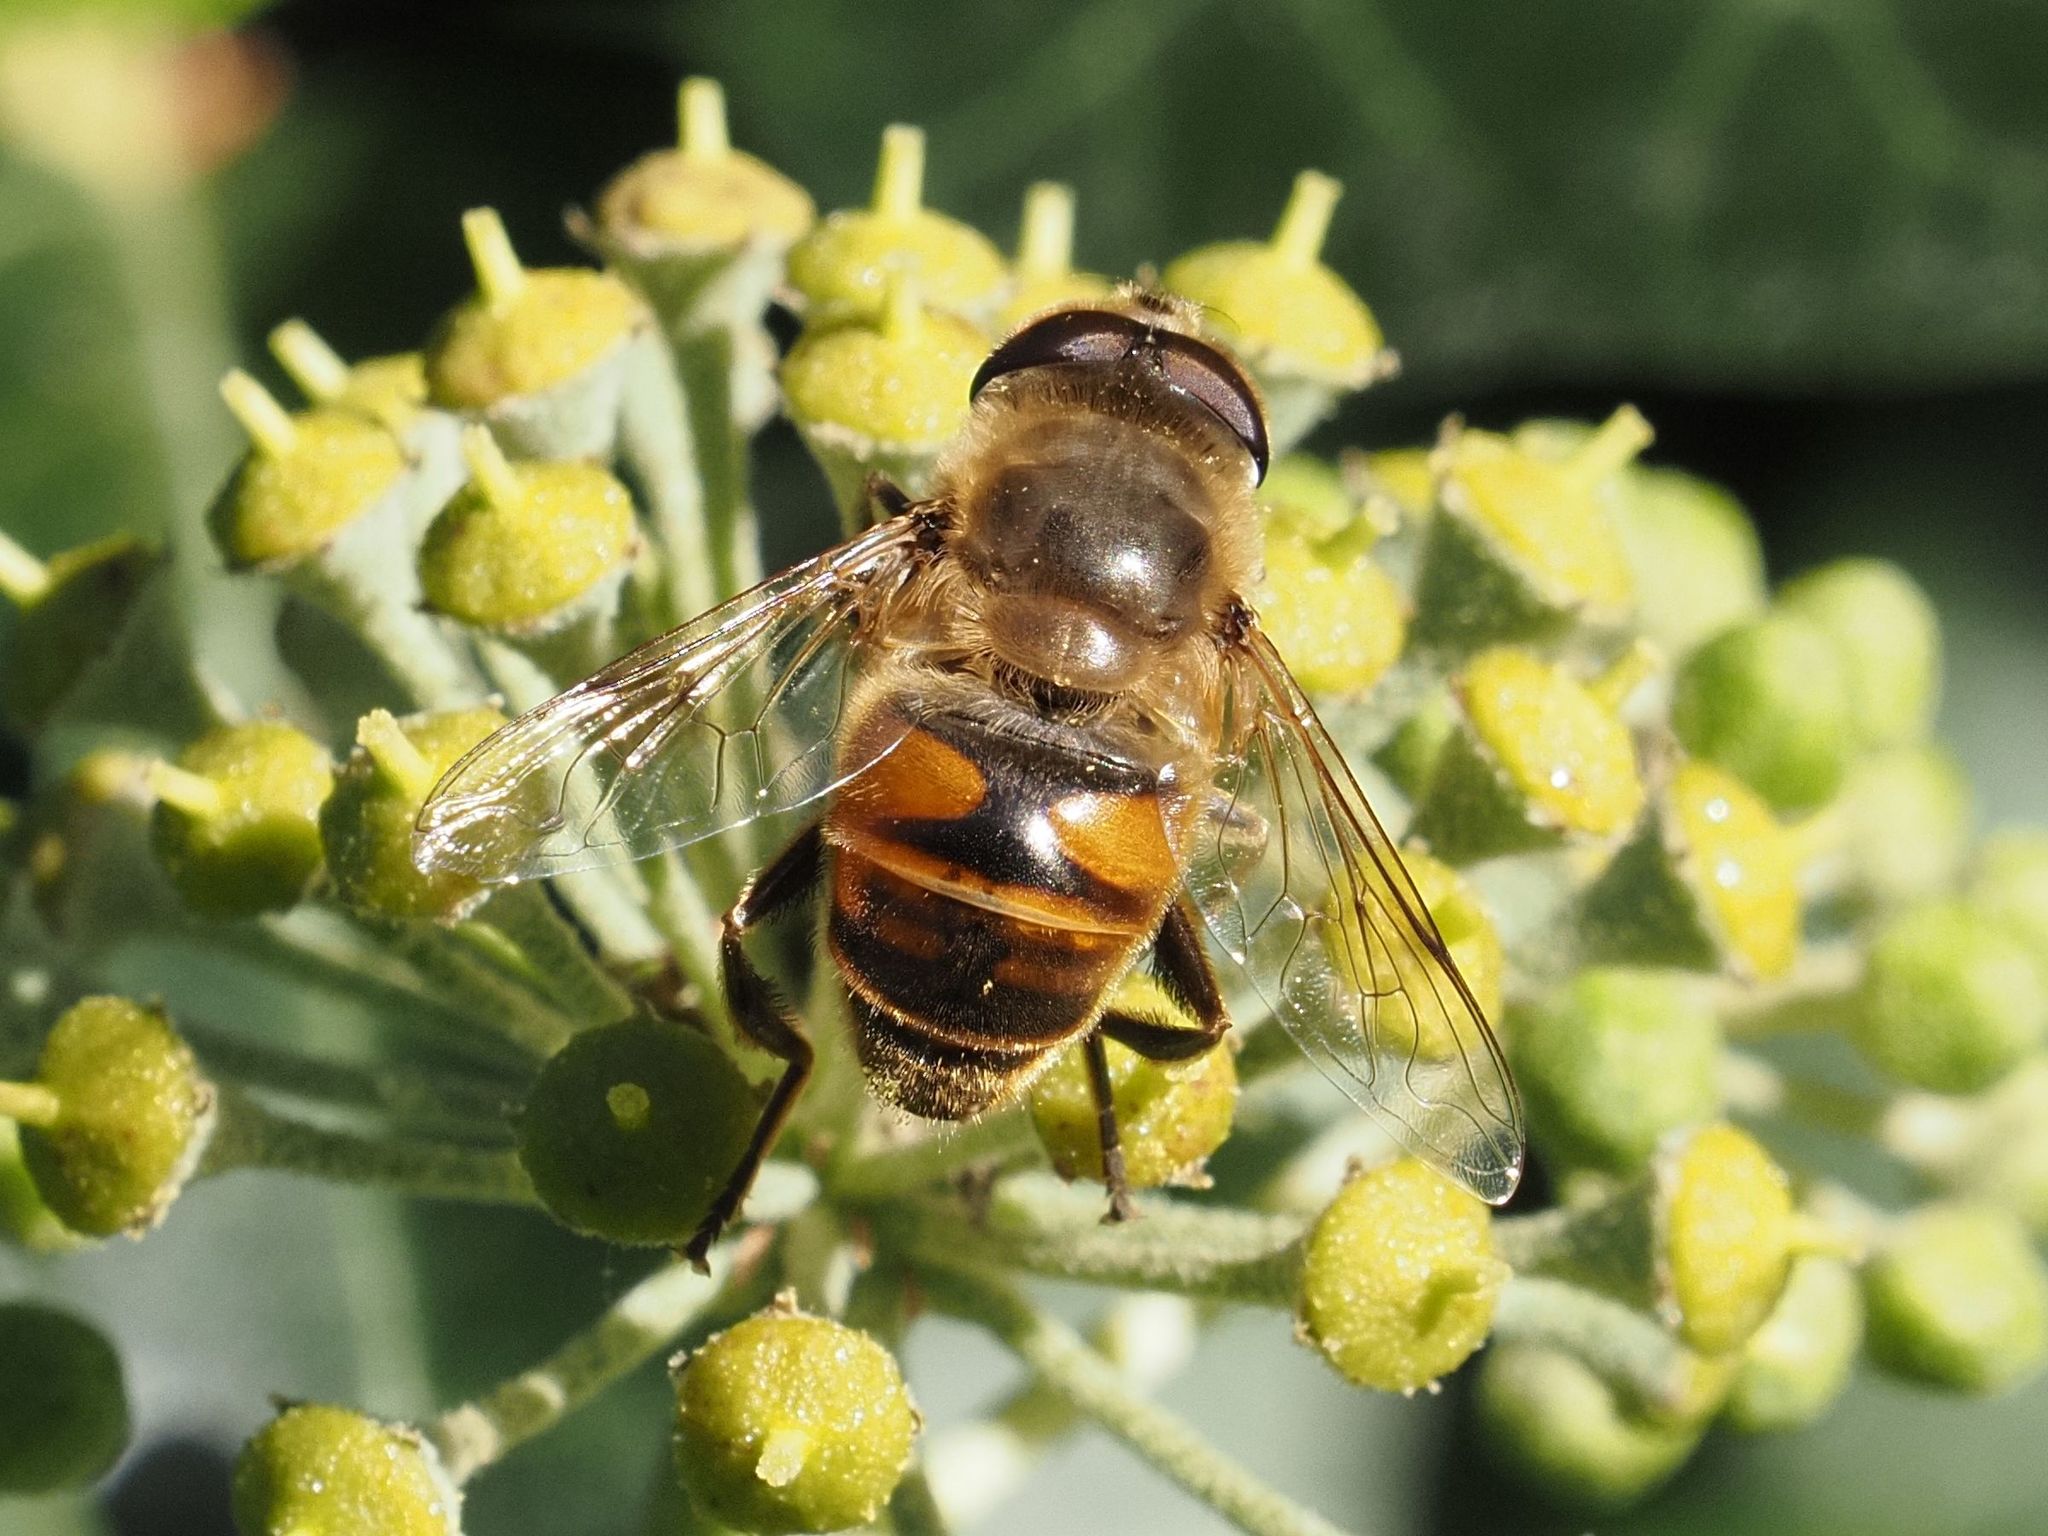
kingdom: Animalia
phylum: Arthropoda
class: Insecta
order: Diptera
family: Syrphidae
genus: Eristalis
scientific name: Eristalis tenax
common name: Drone fly
